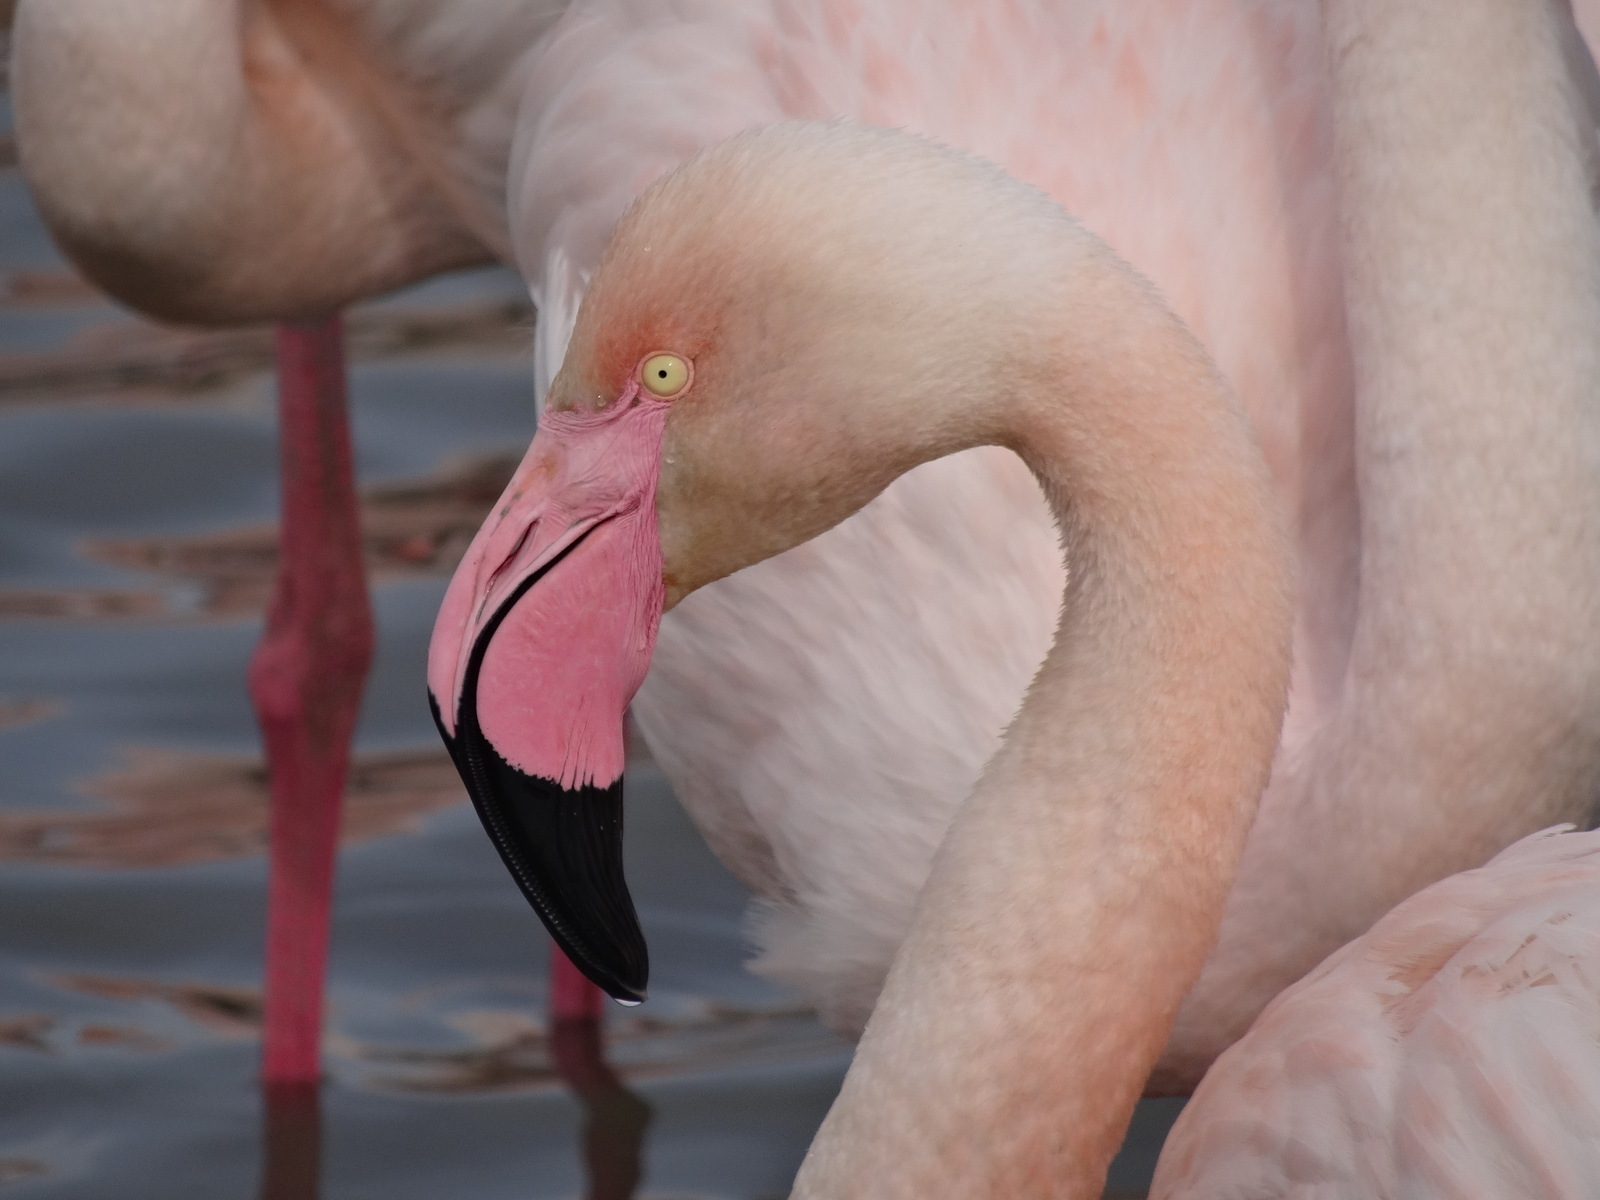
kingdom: Animalia
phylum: Chordata
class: Aves
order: Phoenicopteriformes
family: Phoenicopteridae
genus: Phoenicopterus
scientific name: Phoenicopterus roseus
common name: Greater flamingo
